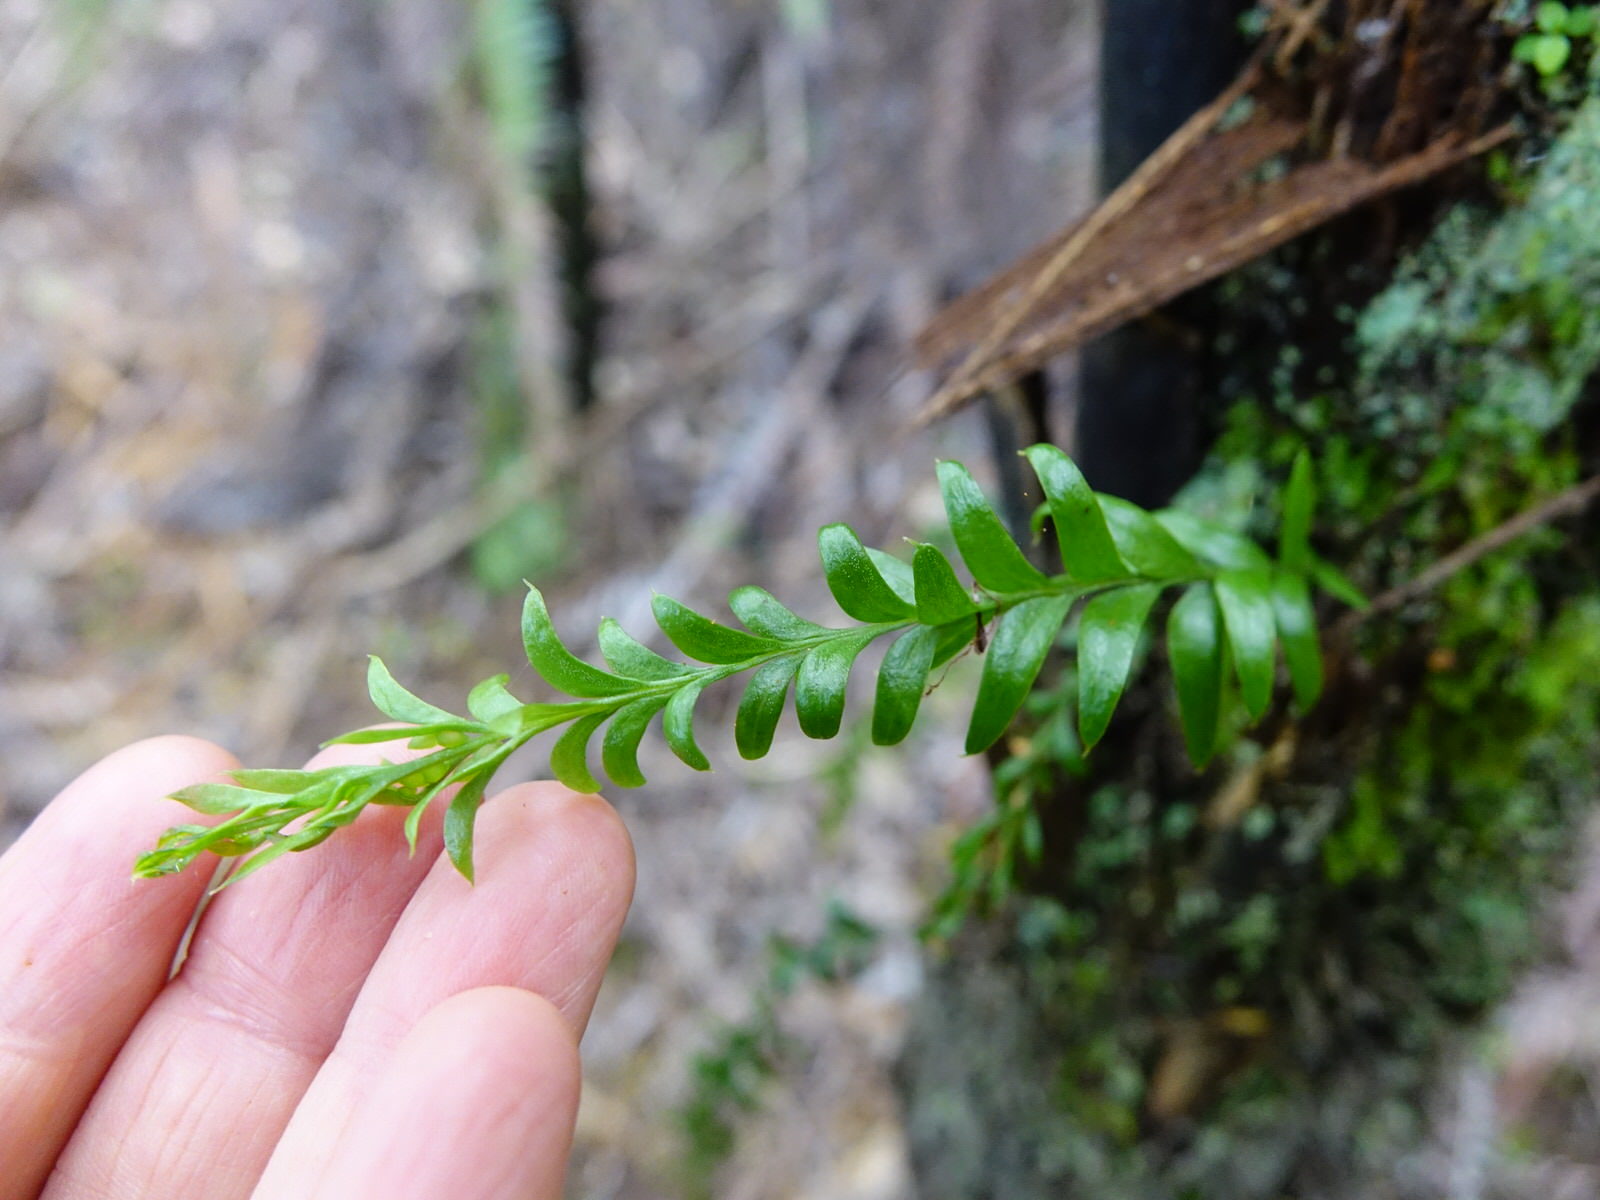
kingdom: Plantae
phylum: Tracheophyta
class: Polypodiopsida
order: Psilotales
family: Psilotaceae
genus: Tmesipteris
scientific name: Tmesipteris tannensis
